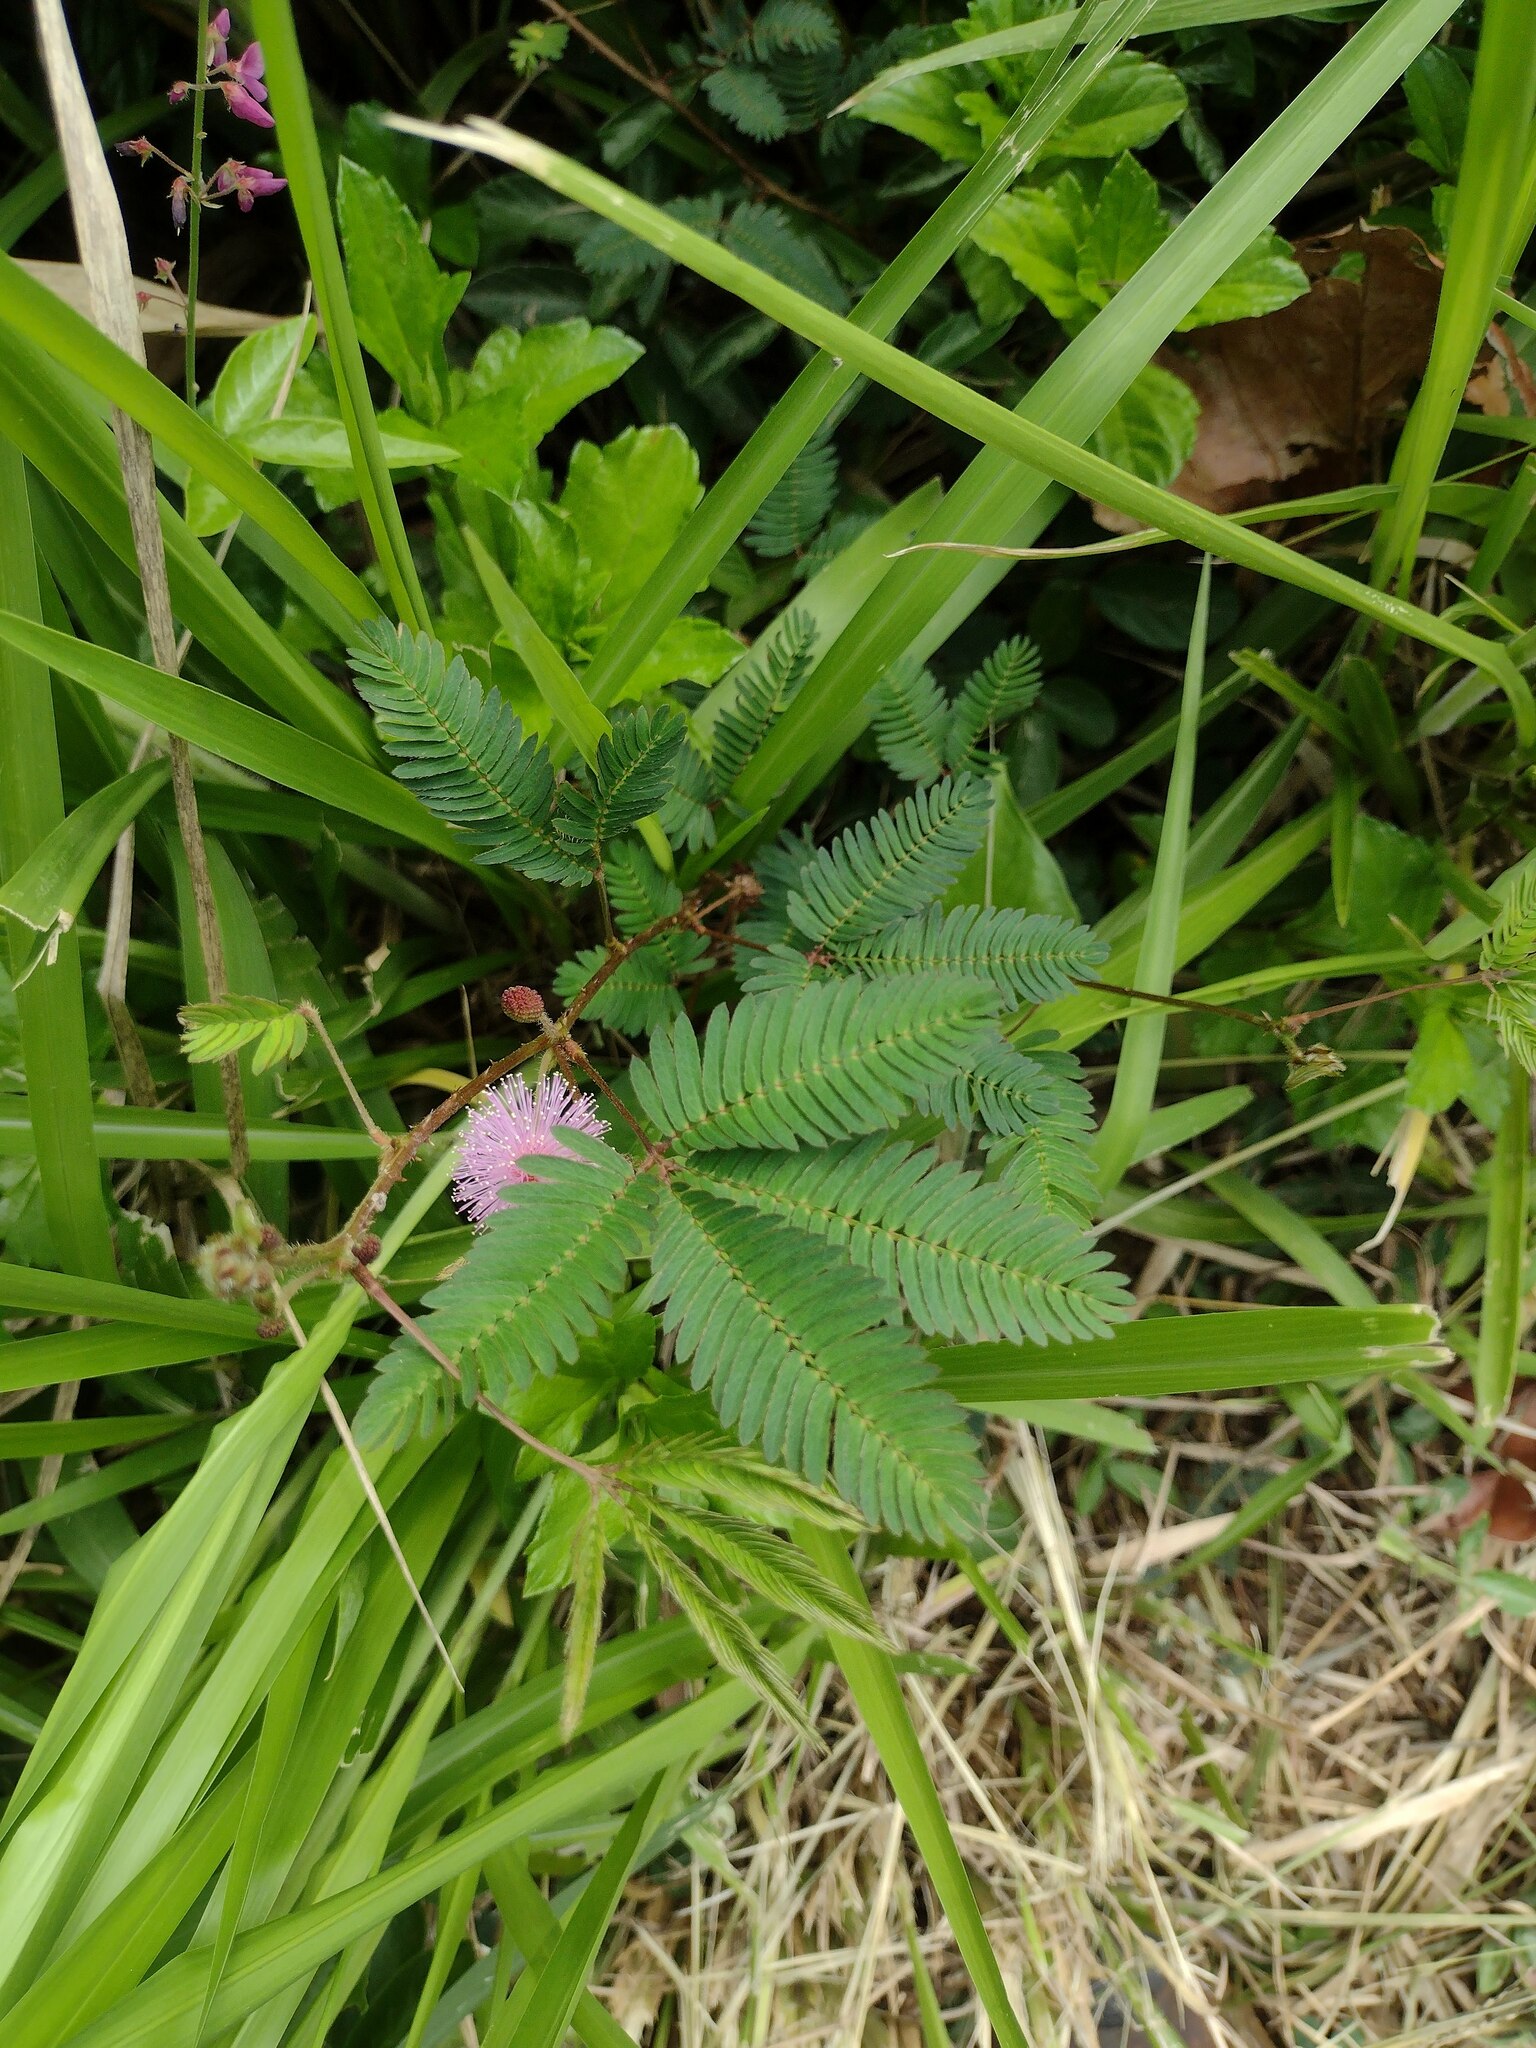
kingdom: Plantae
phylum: Tracheophyta
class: Magnoliopsida
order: Fabales
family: Fabaceae
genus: Mimosa
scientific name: Mimosa pudica
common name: Sensitive plant
